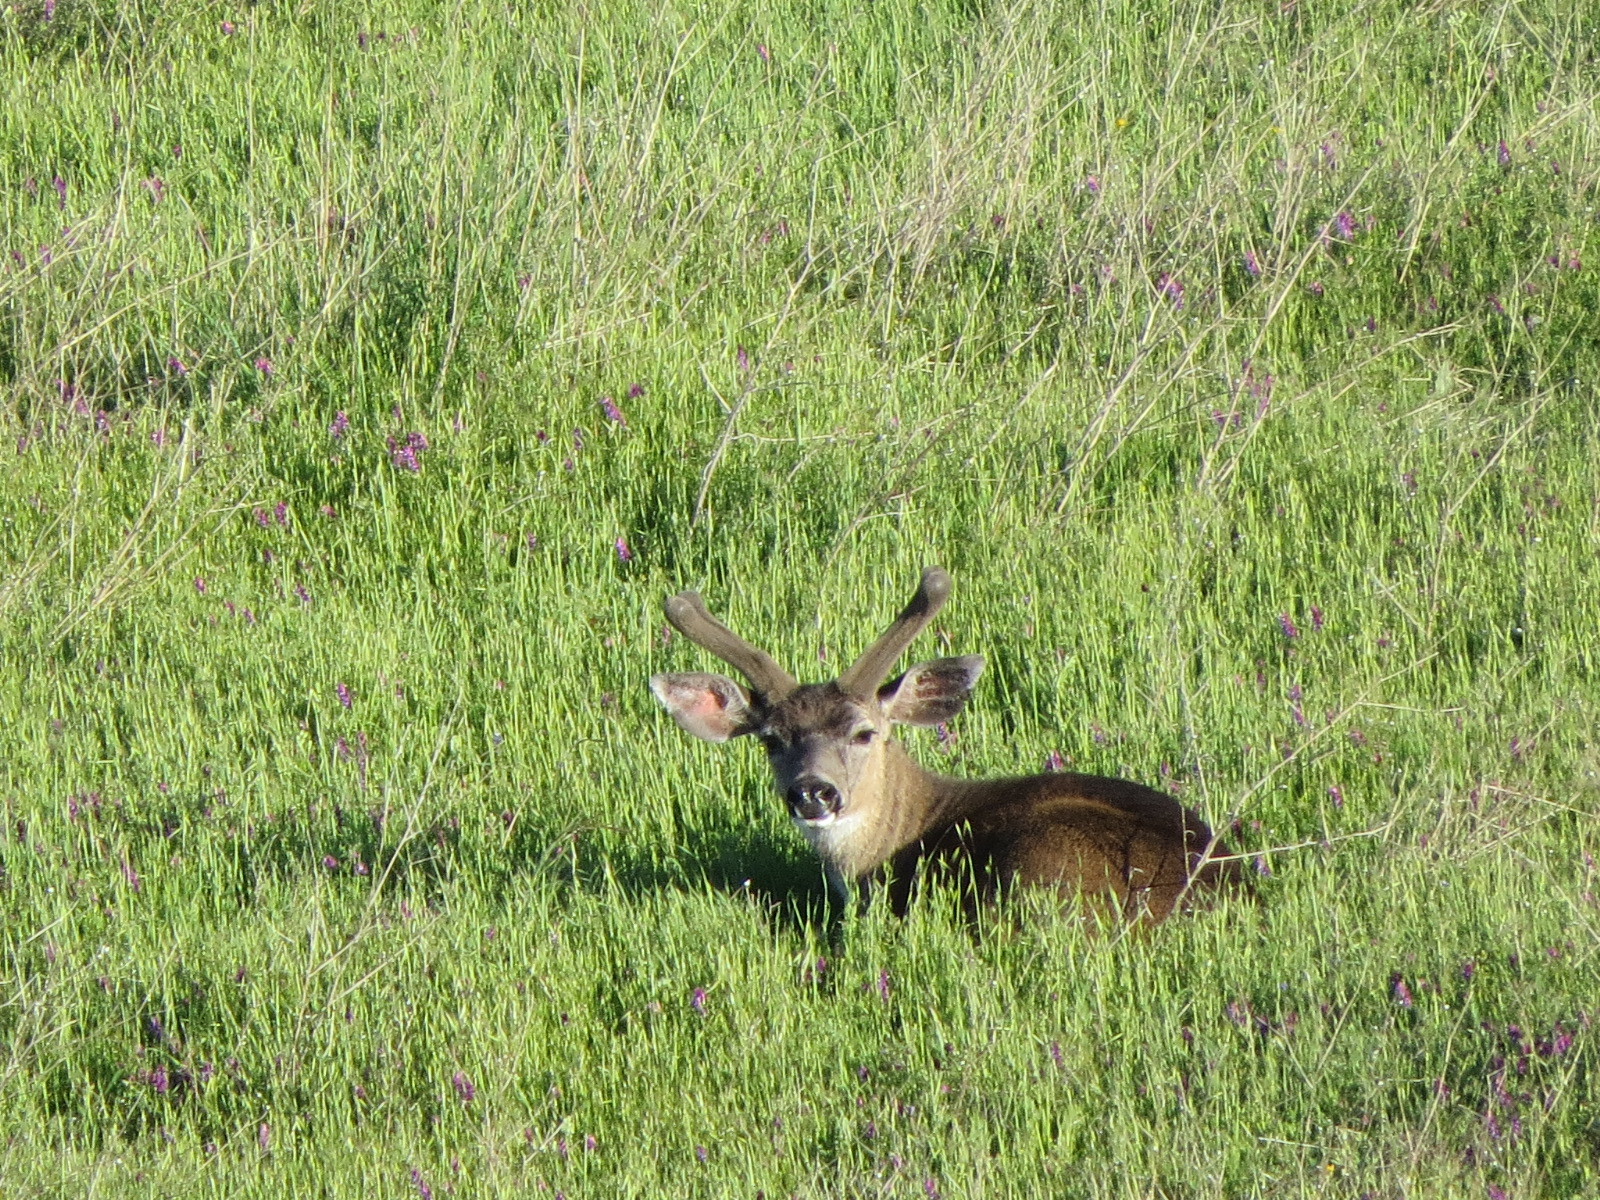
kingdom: Animalia
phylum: Chordata
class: Mammalia
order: Artiodactyla
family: Cervidae
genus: Odocoileus
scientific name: Odocoileus hemionus
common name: Mule deer
